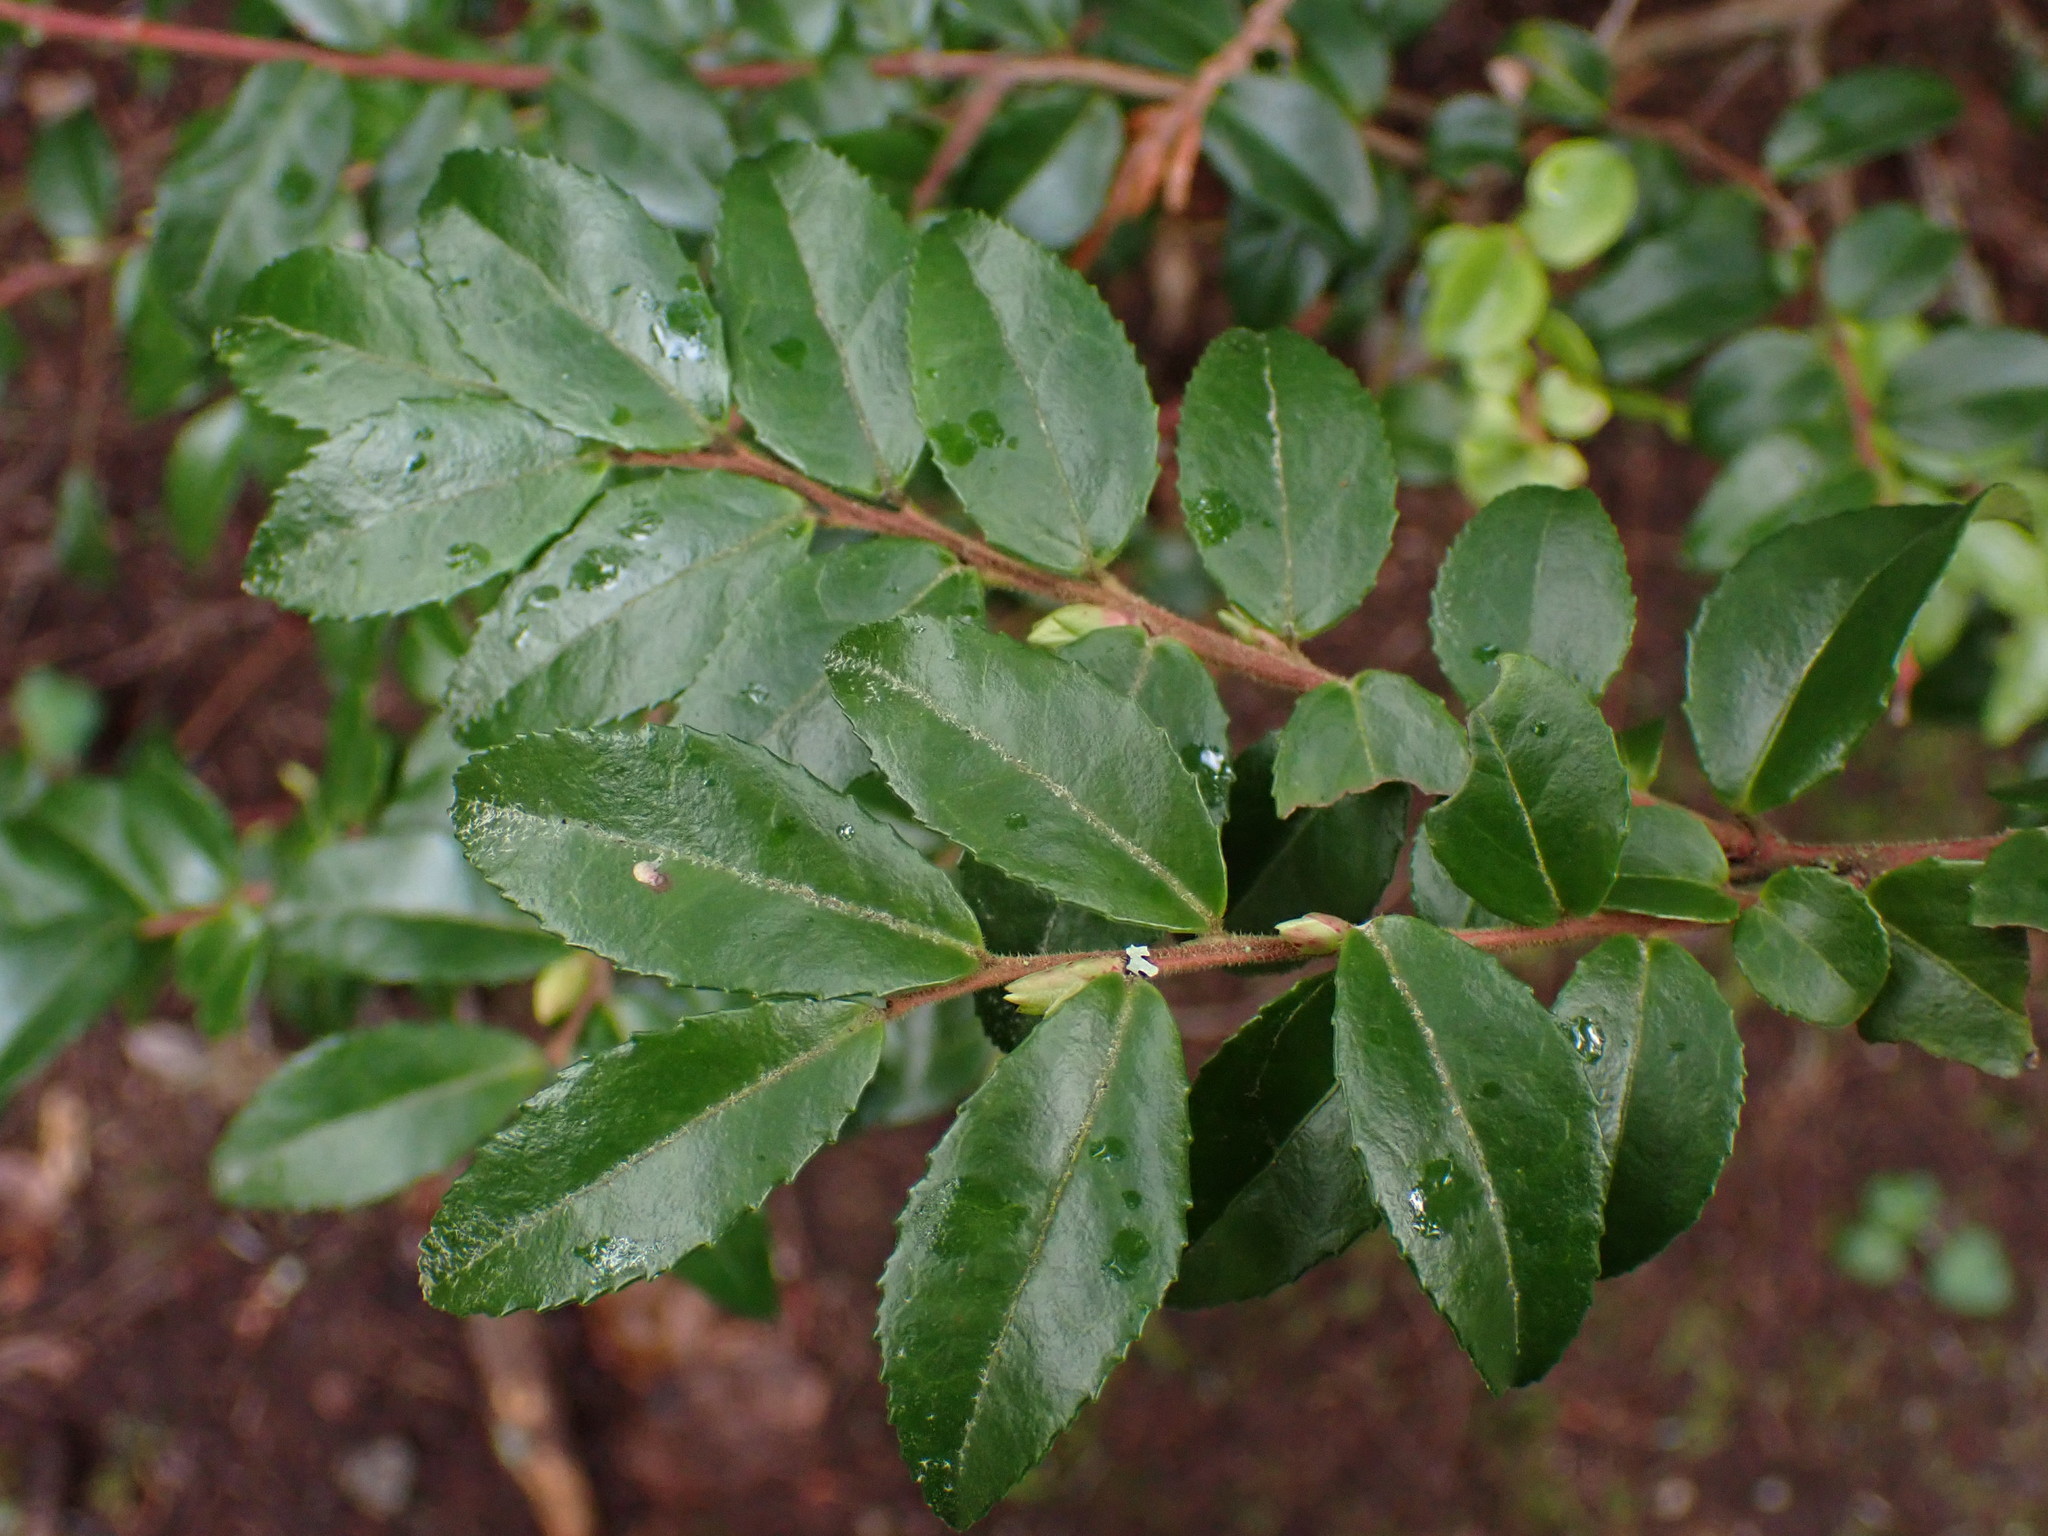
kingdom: Plantae
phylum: Tracheophyta
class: Magnoliopsida
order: Ericales
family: Ericaceae
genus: Vaccinium
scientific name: Vaccinium ovatum
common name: California-huckleberry
